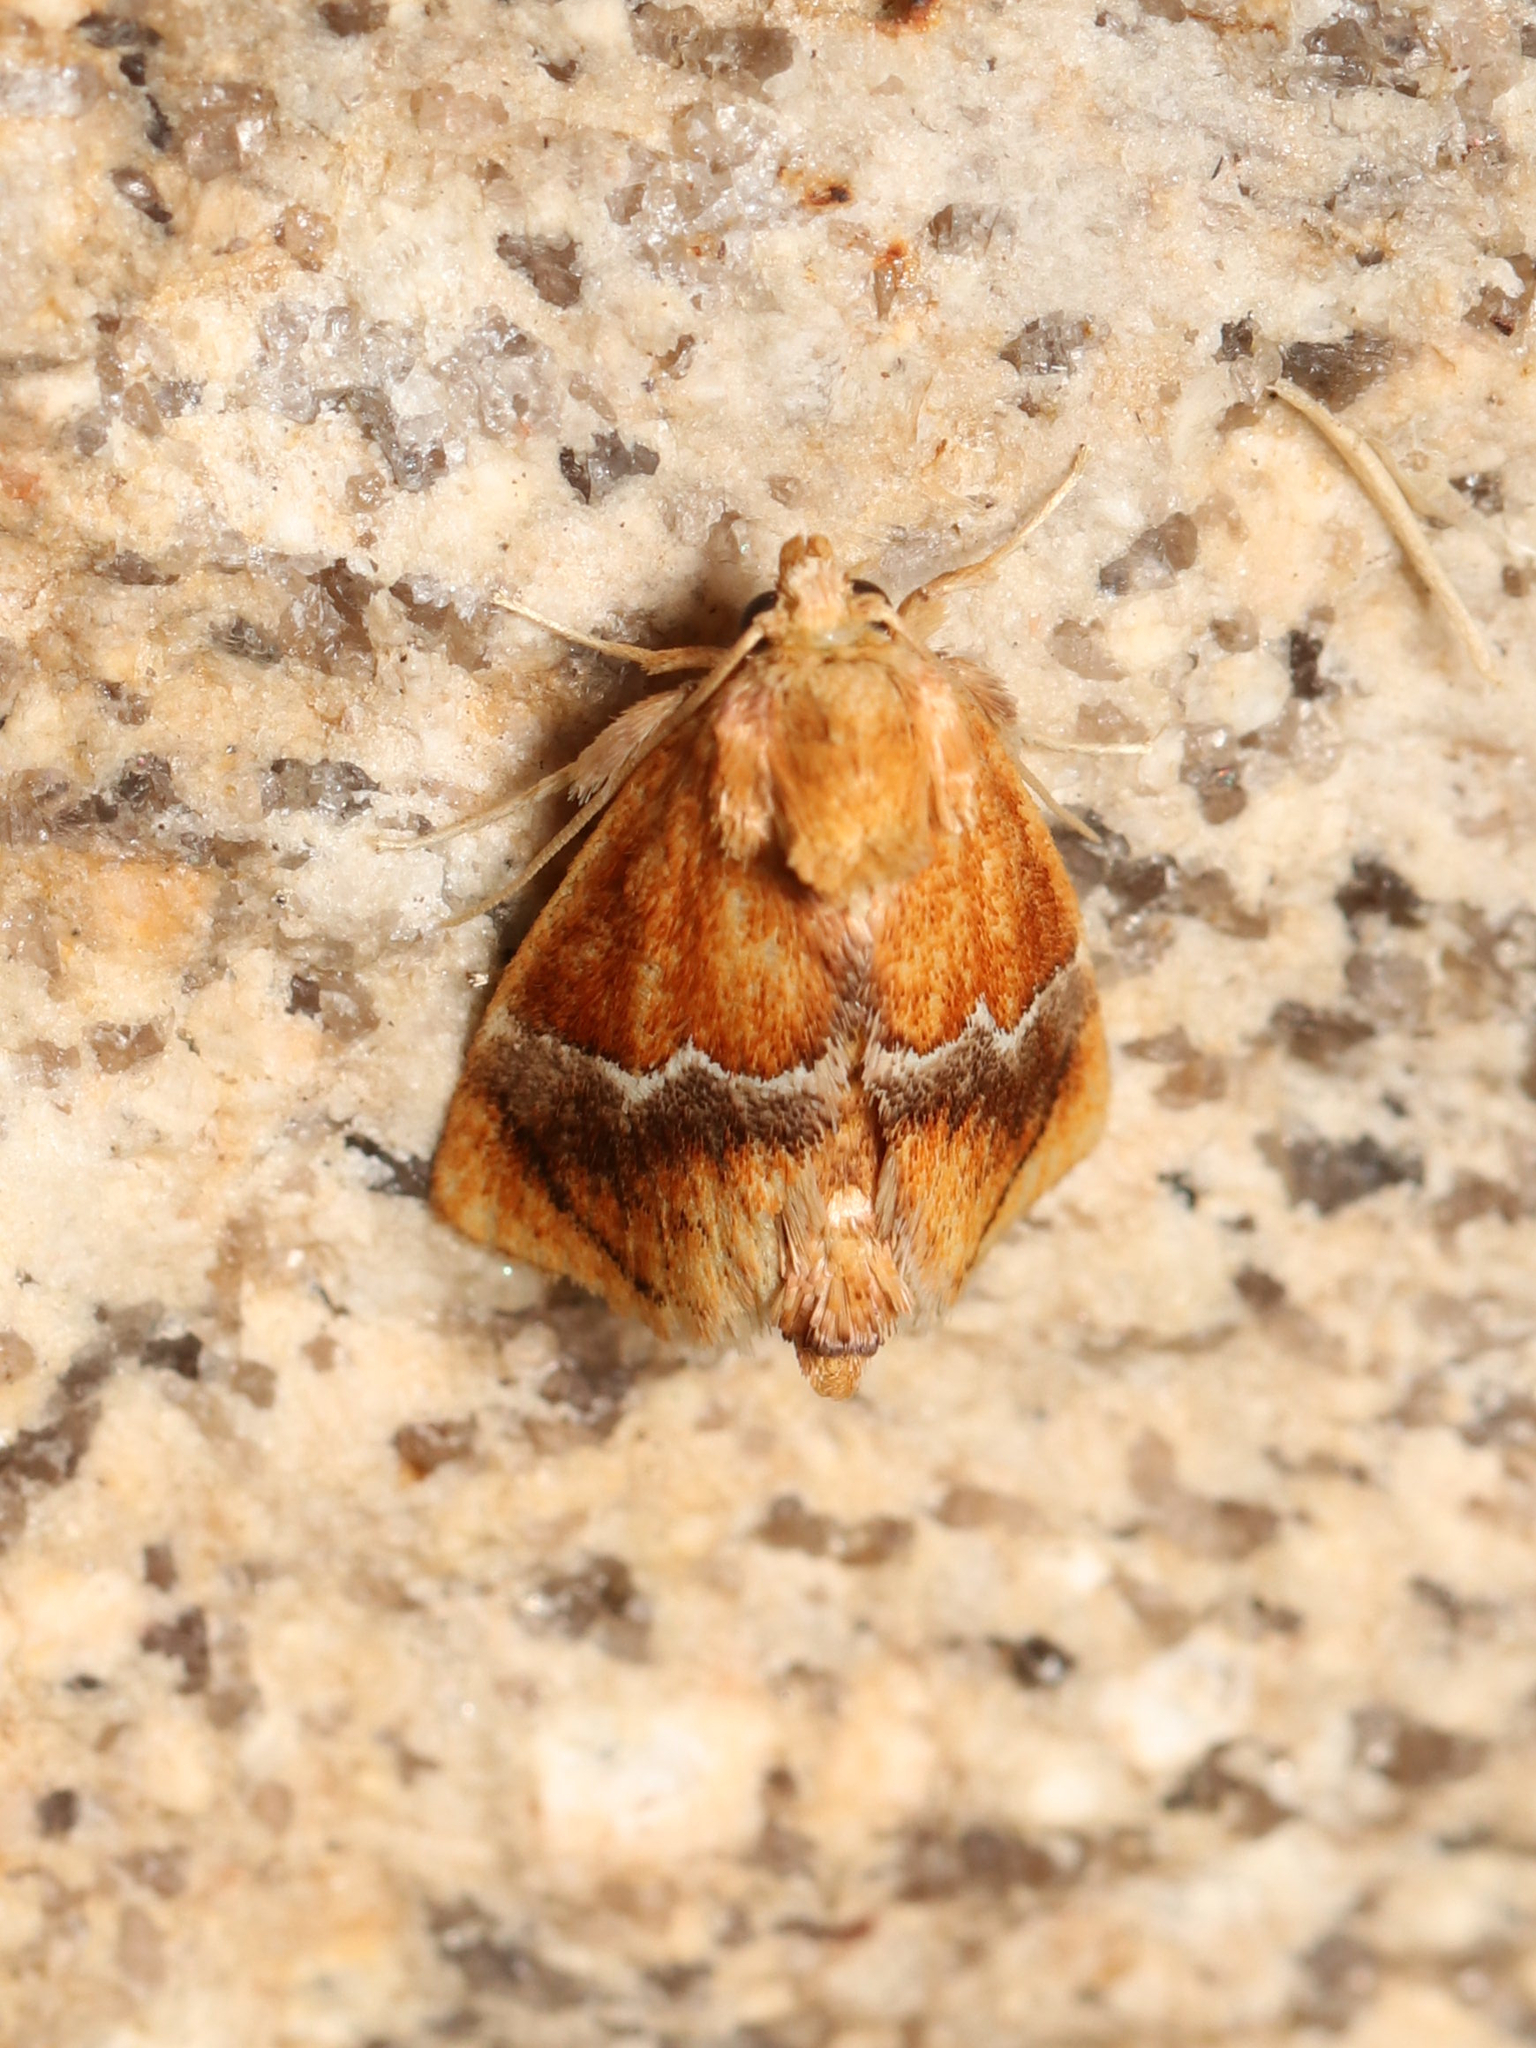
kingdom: Animalia
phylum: Arthropoda
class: Insecta
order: Lepidoptera
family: Limacodidae
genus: Lithacodes
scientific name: Lithacodes fasciola
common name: Yellow-shouldered slug moth
